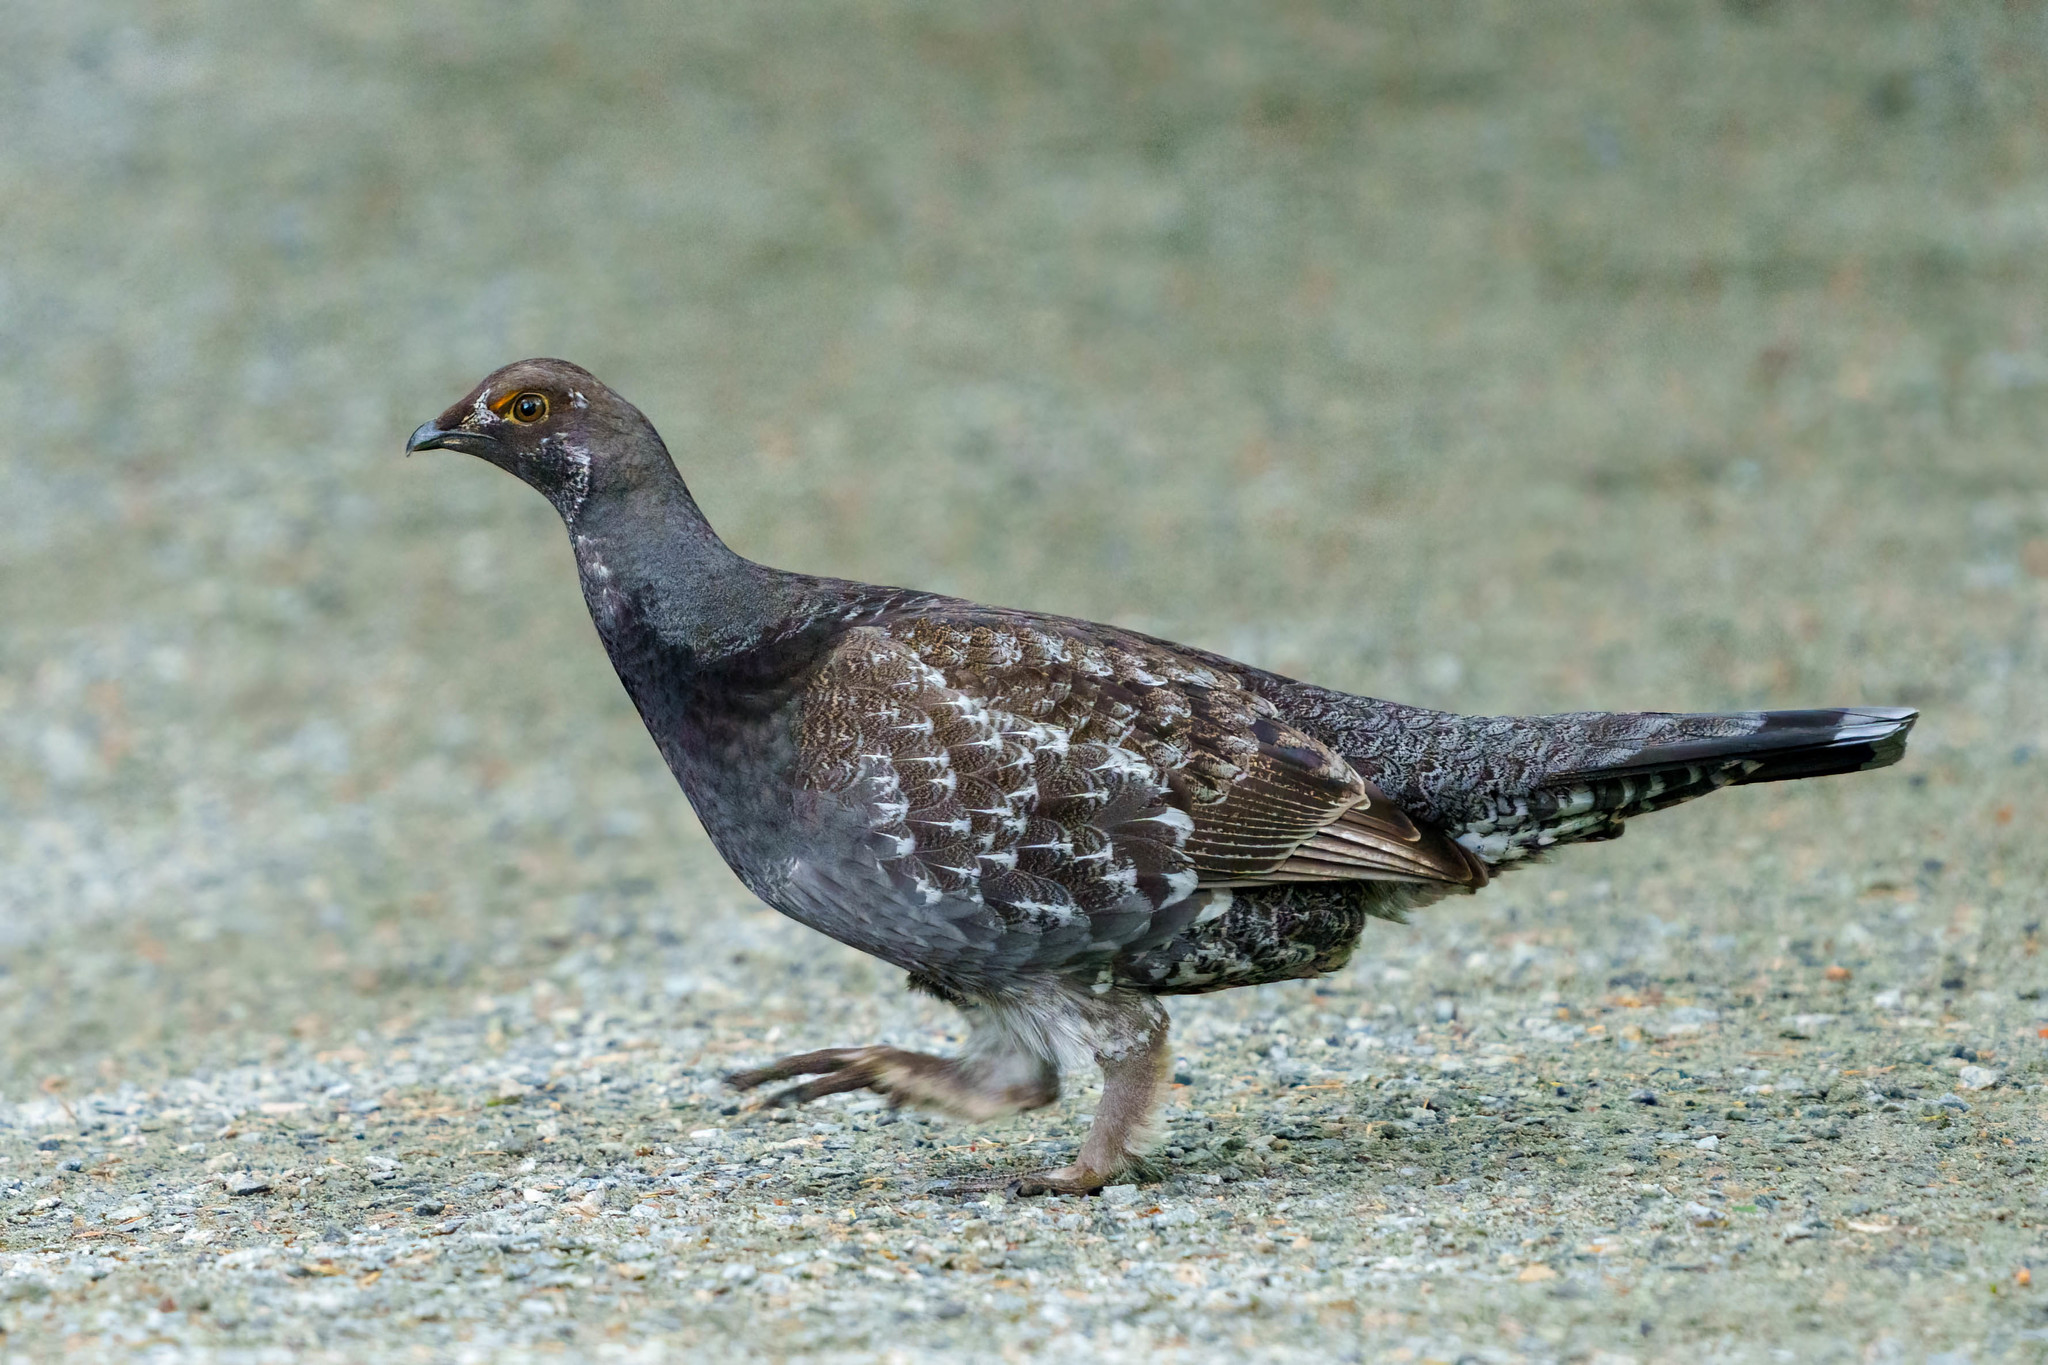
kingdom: Animalia
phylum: Chordata
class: Aves
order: Galliformes
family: Phasianidae
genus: Dendragapus
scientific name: Dendragapus fuliginosus
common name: Sooty grouse
